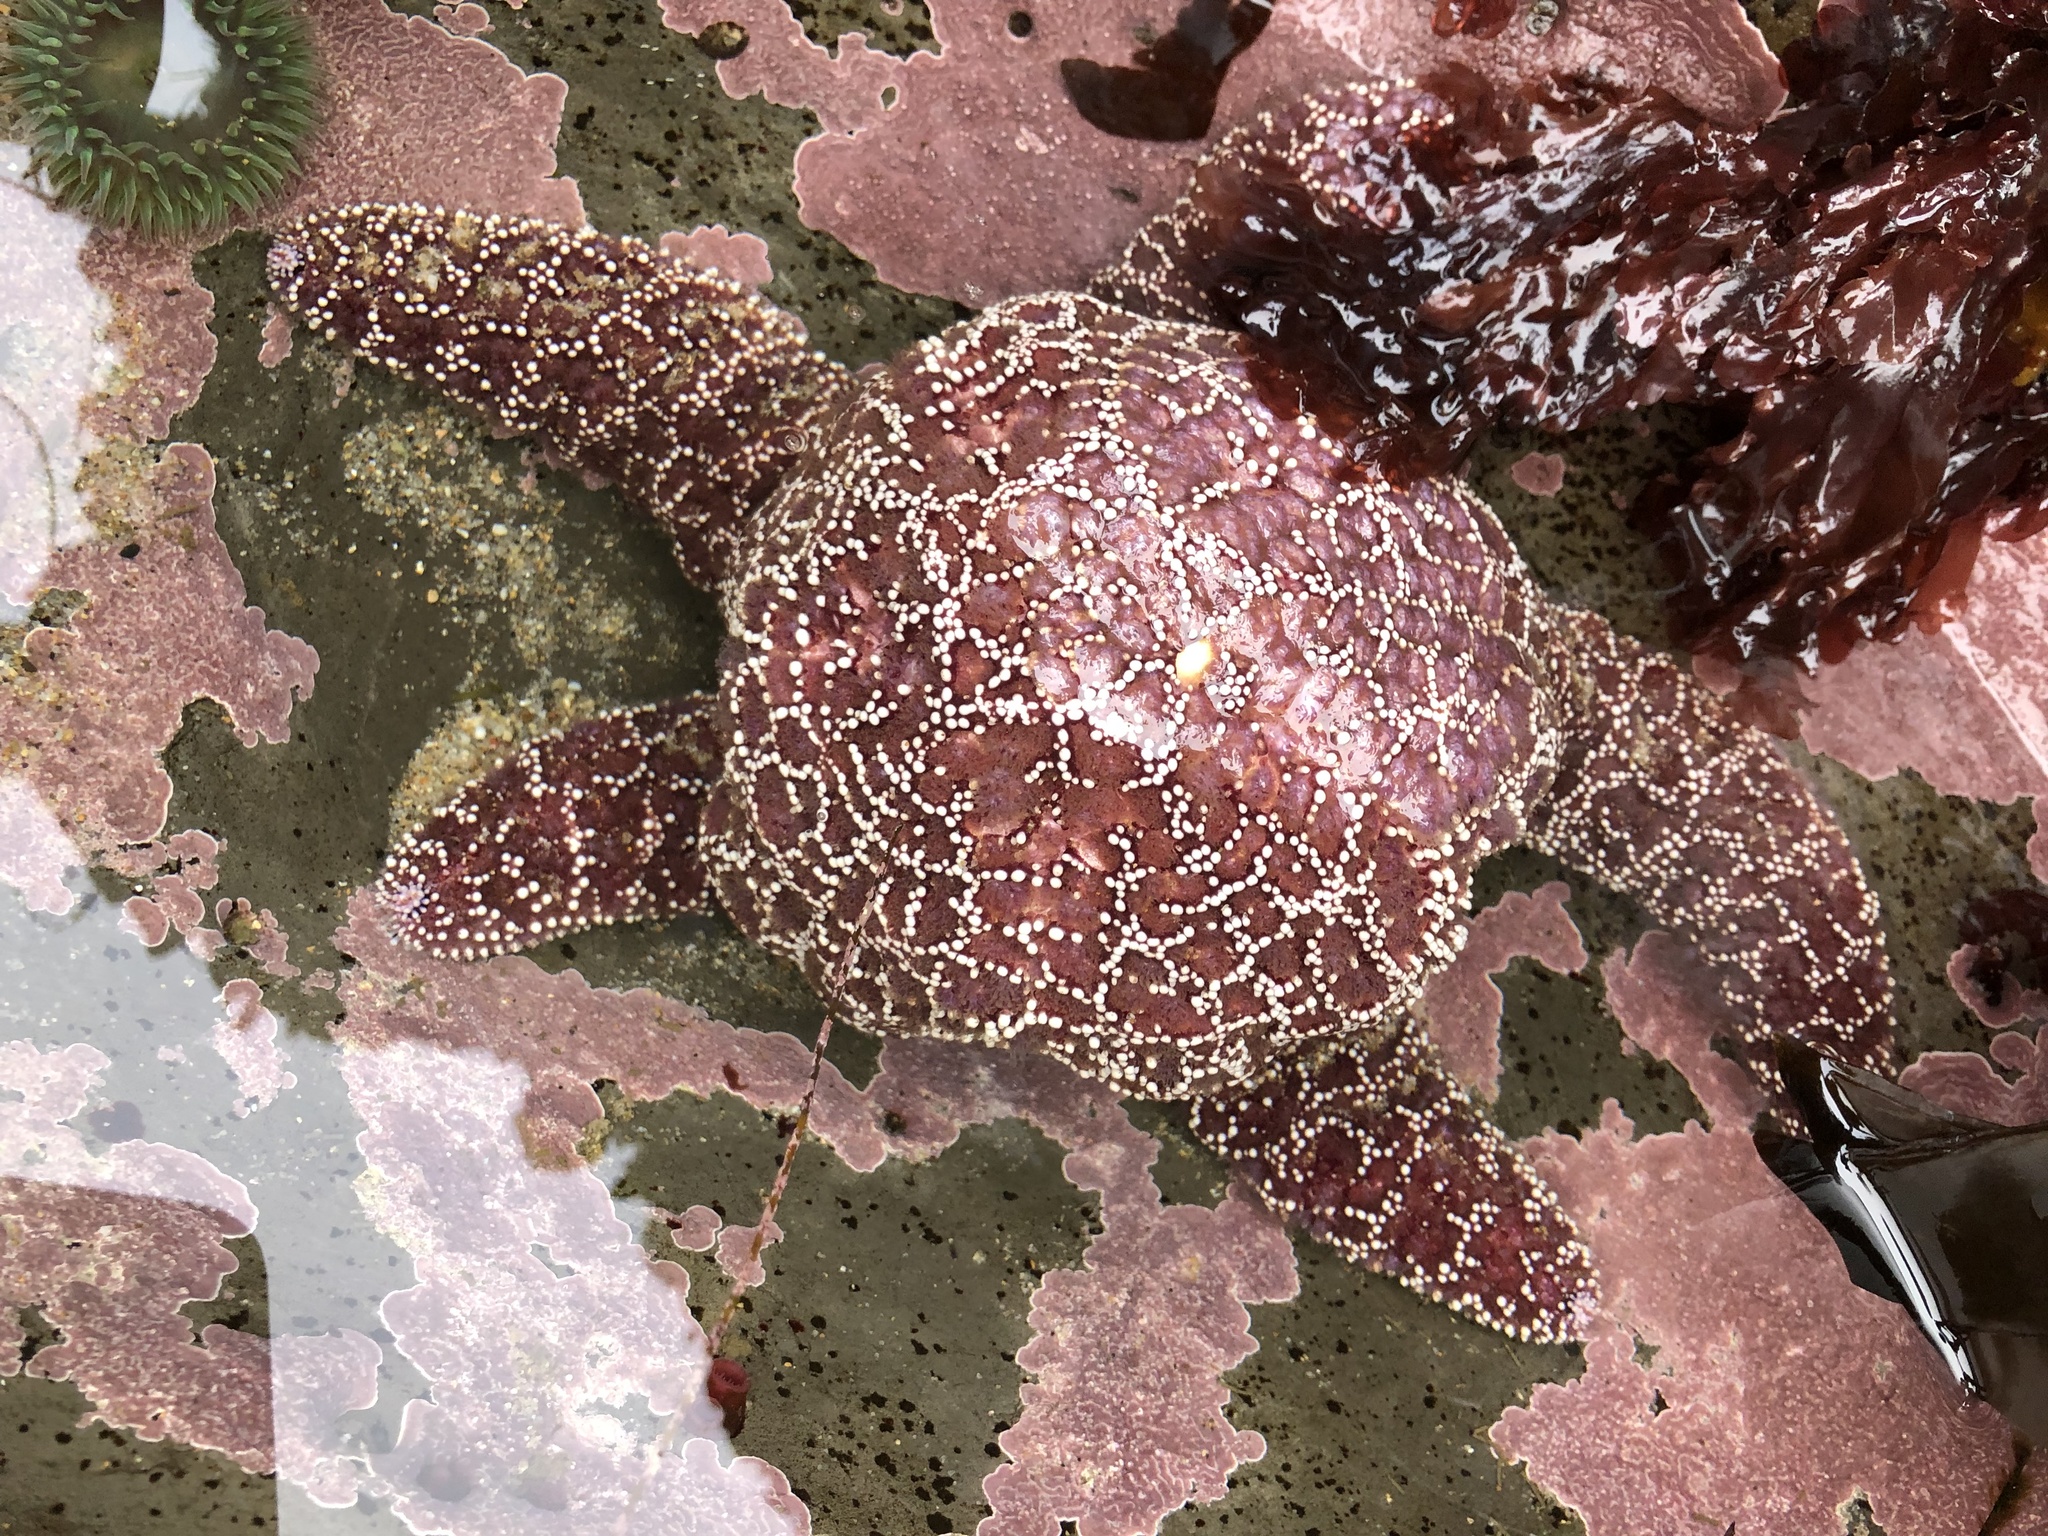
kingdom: Animalia
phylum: Echinodermata
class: Asteroidea
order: Forcipulatida
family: Asteriidae
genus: Pisaster
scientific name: Pisaster ochraceus
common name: Ochre stars
